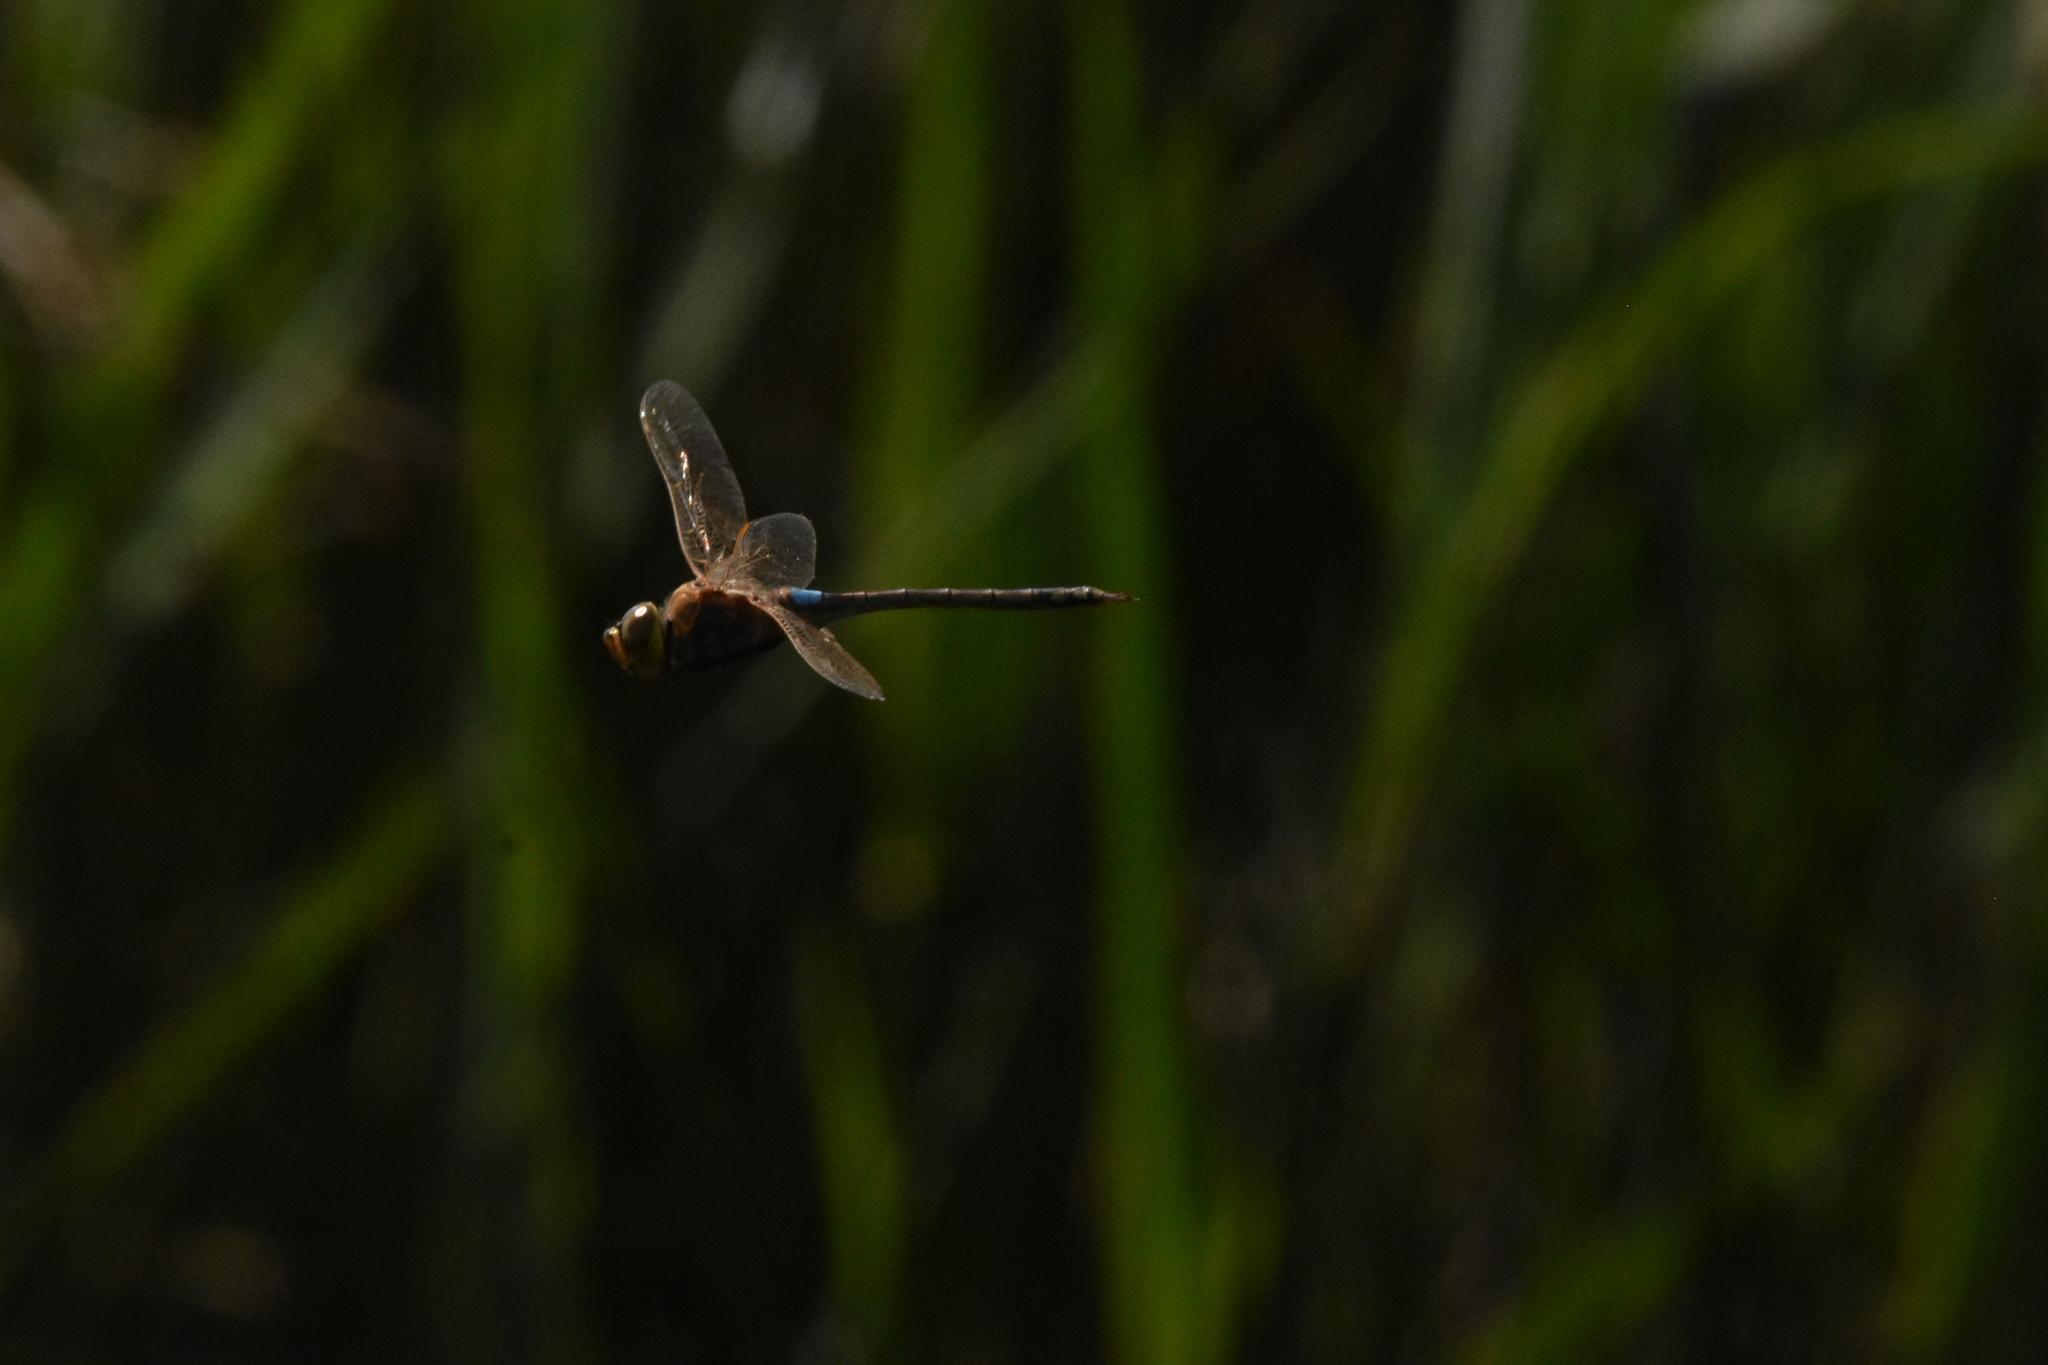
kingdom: Animalia
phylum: Arthropoda
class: Insecta
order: Odonata
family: Aeshnidae
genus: Anax
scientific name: Anax ephippiger
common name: Vagrant emperor
